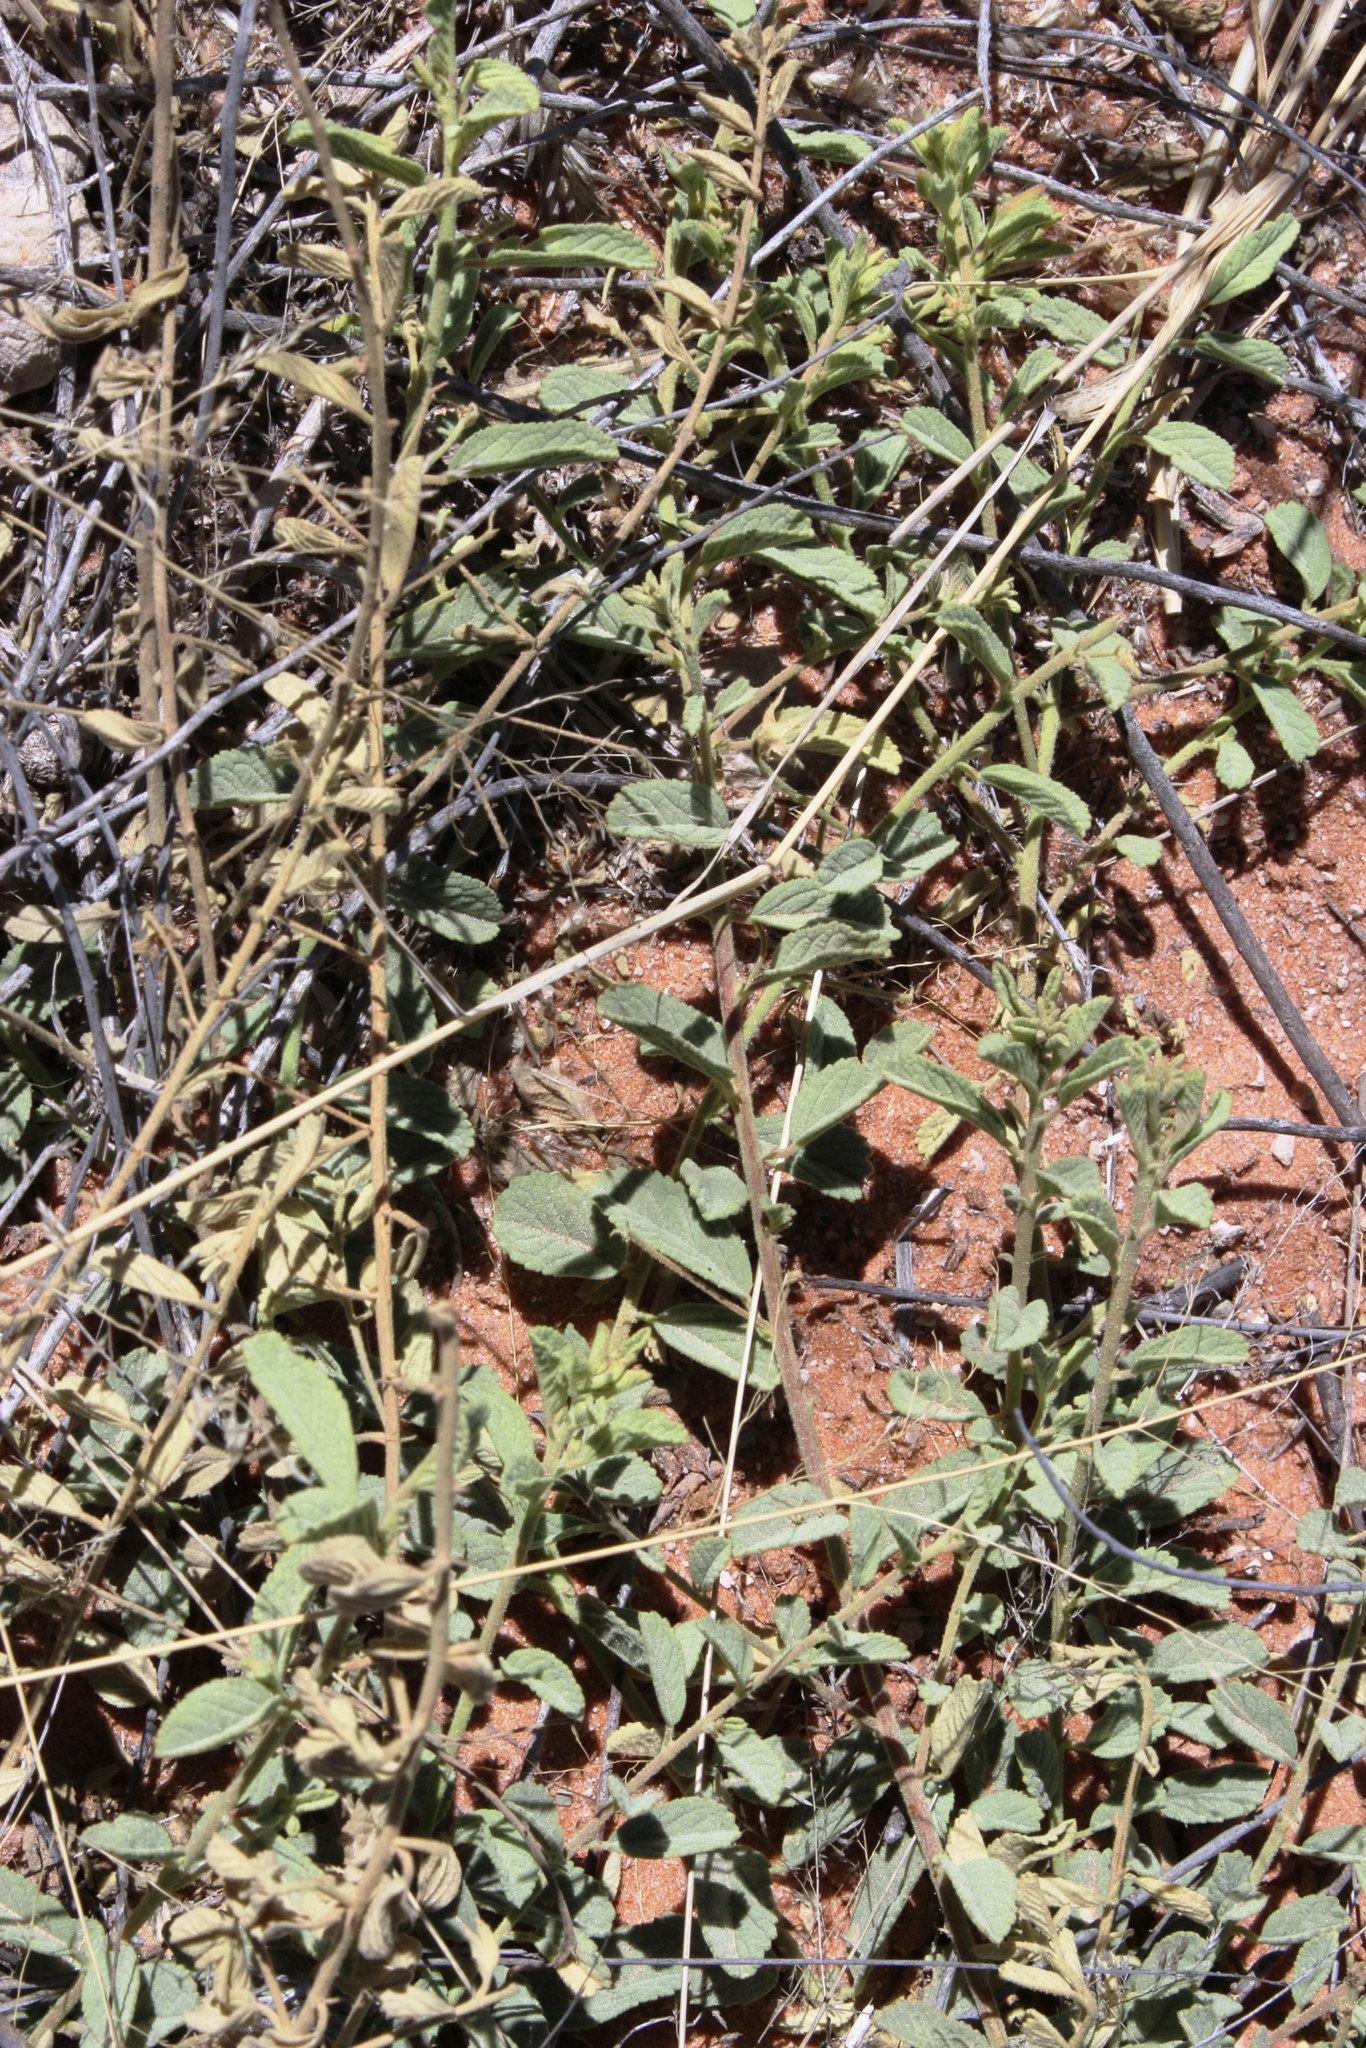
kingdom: Plantae
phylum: Tracheophyta
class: Magnoliopsida
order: Malvales
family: Malvaceae
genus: Hermannia
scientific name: Hermannia tomentosa
